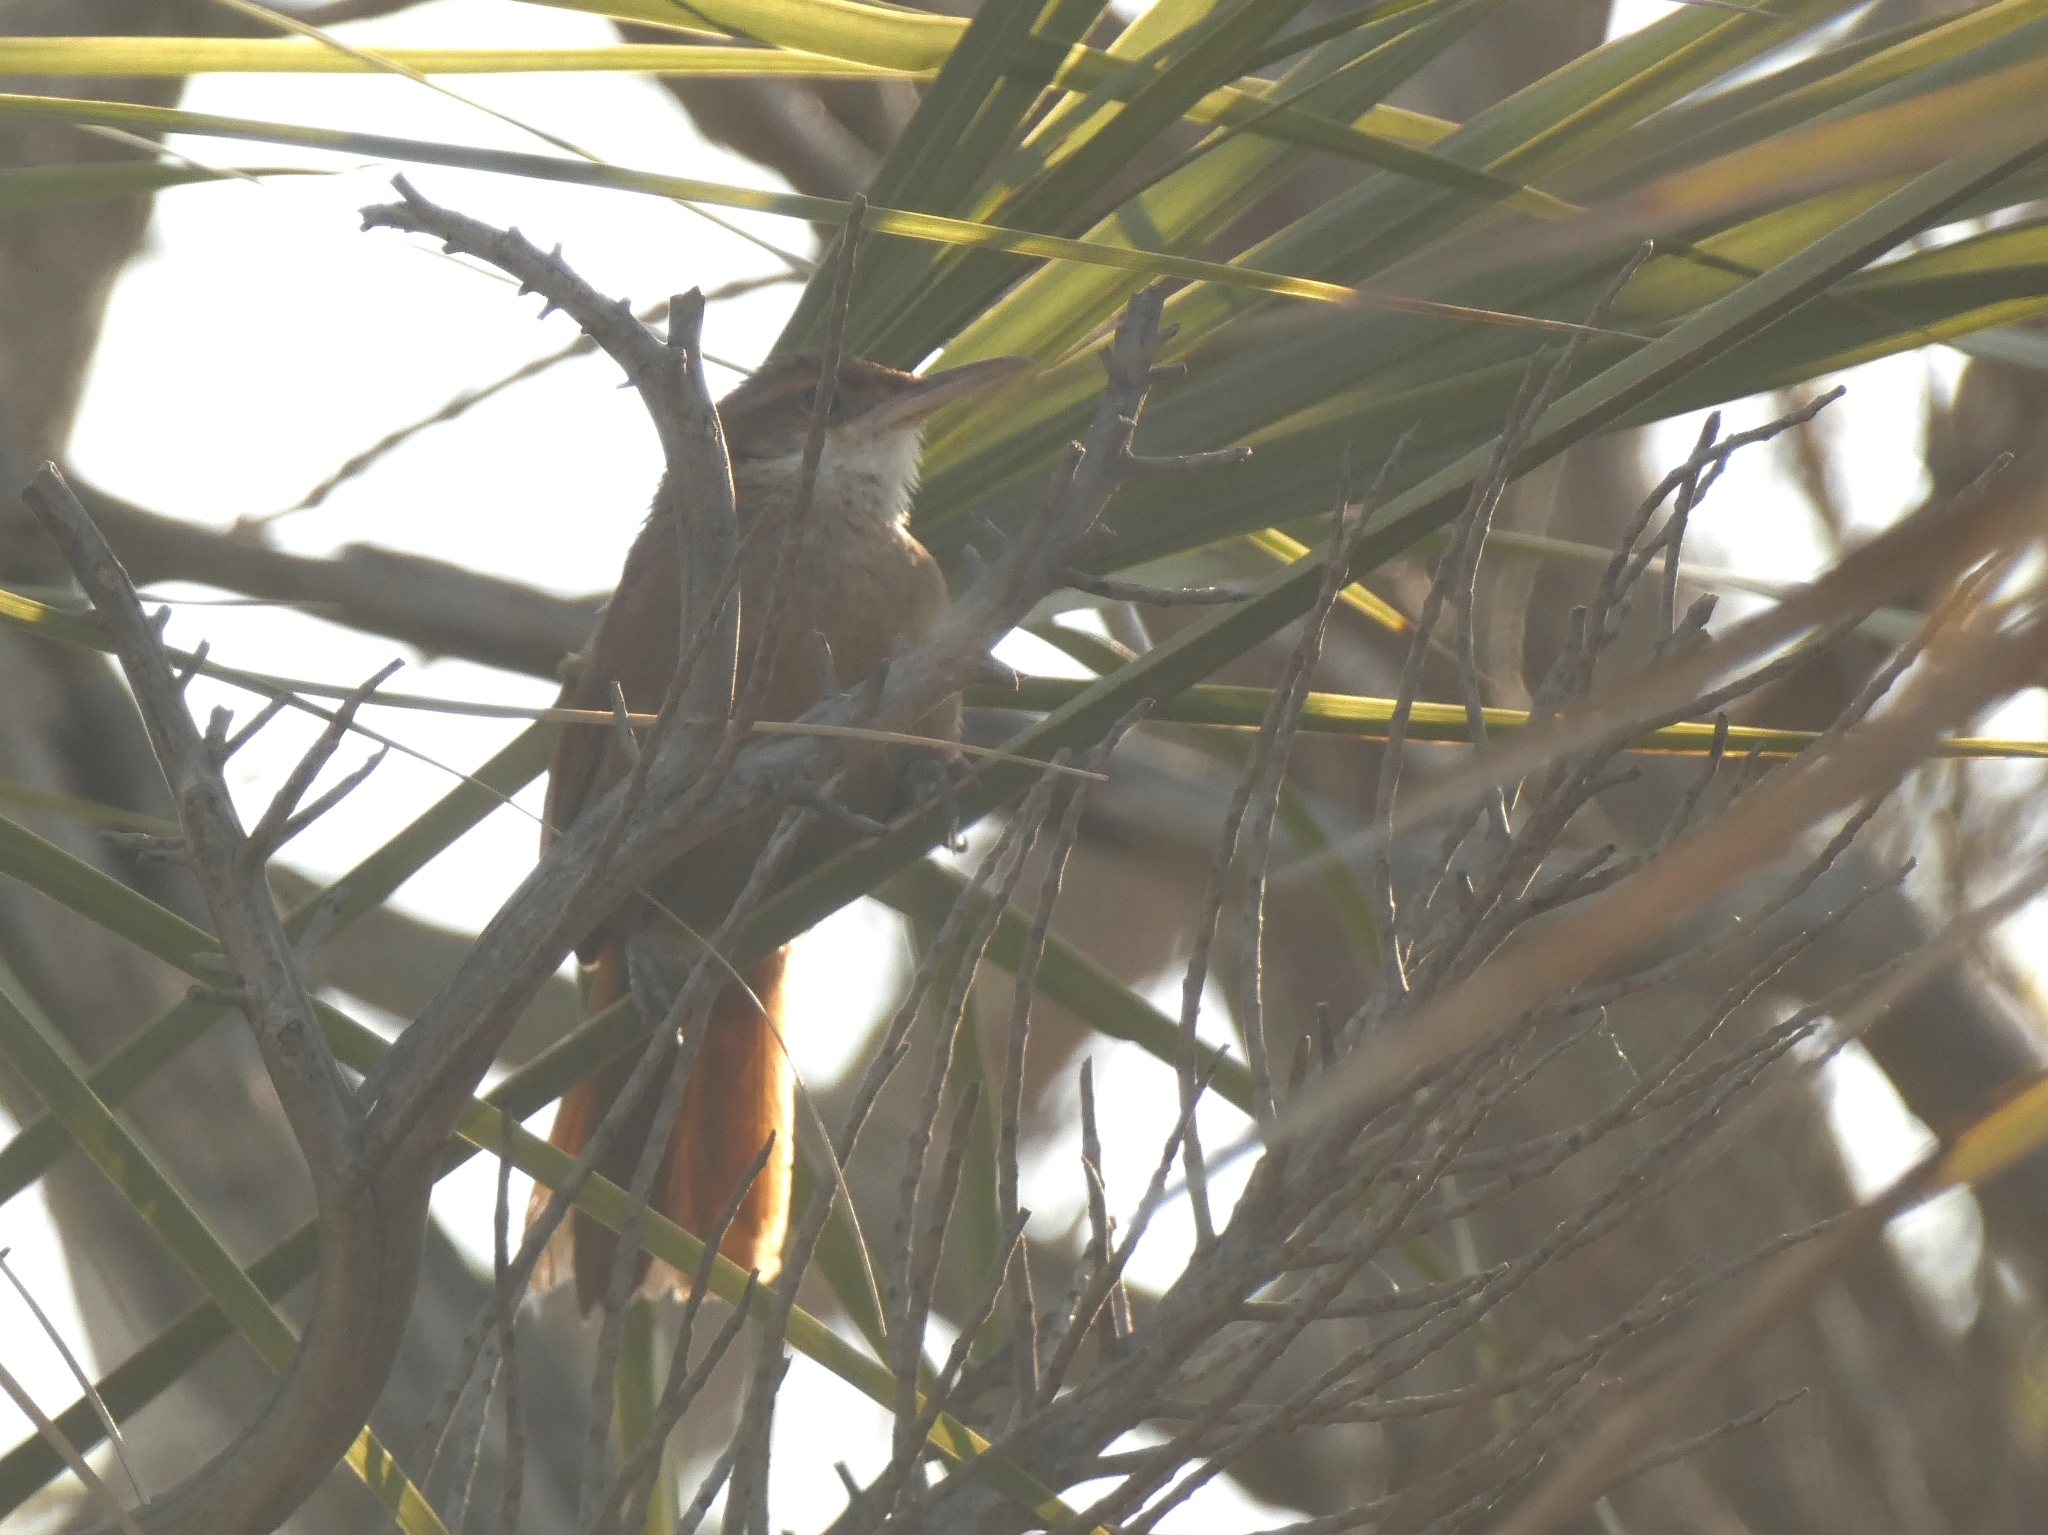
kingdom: Animalia
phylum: Chordata
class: Aves
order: Passeriformes
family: Furnariidae
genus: Upucerthia
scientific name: Upucerthia certhioides
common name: Chaco earthcreeper
